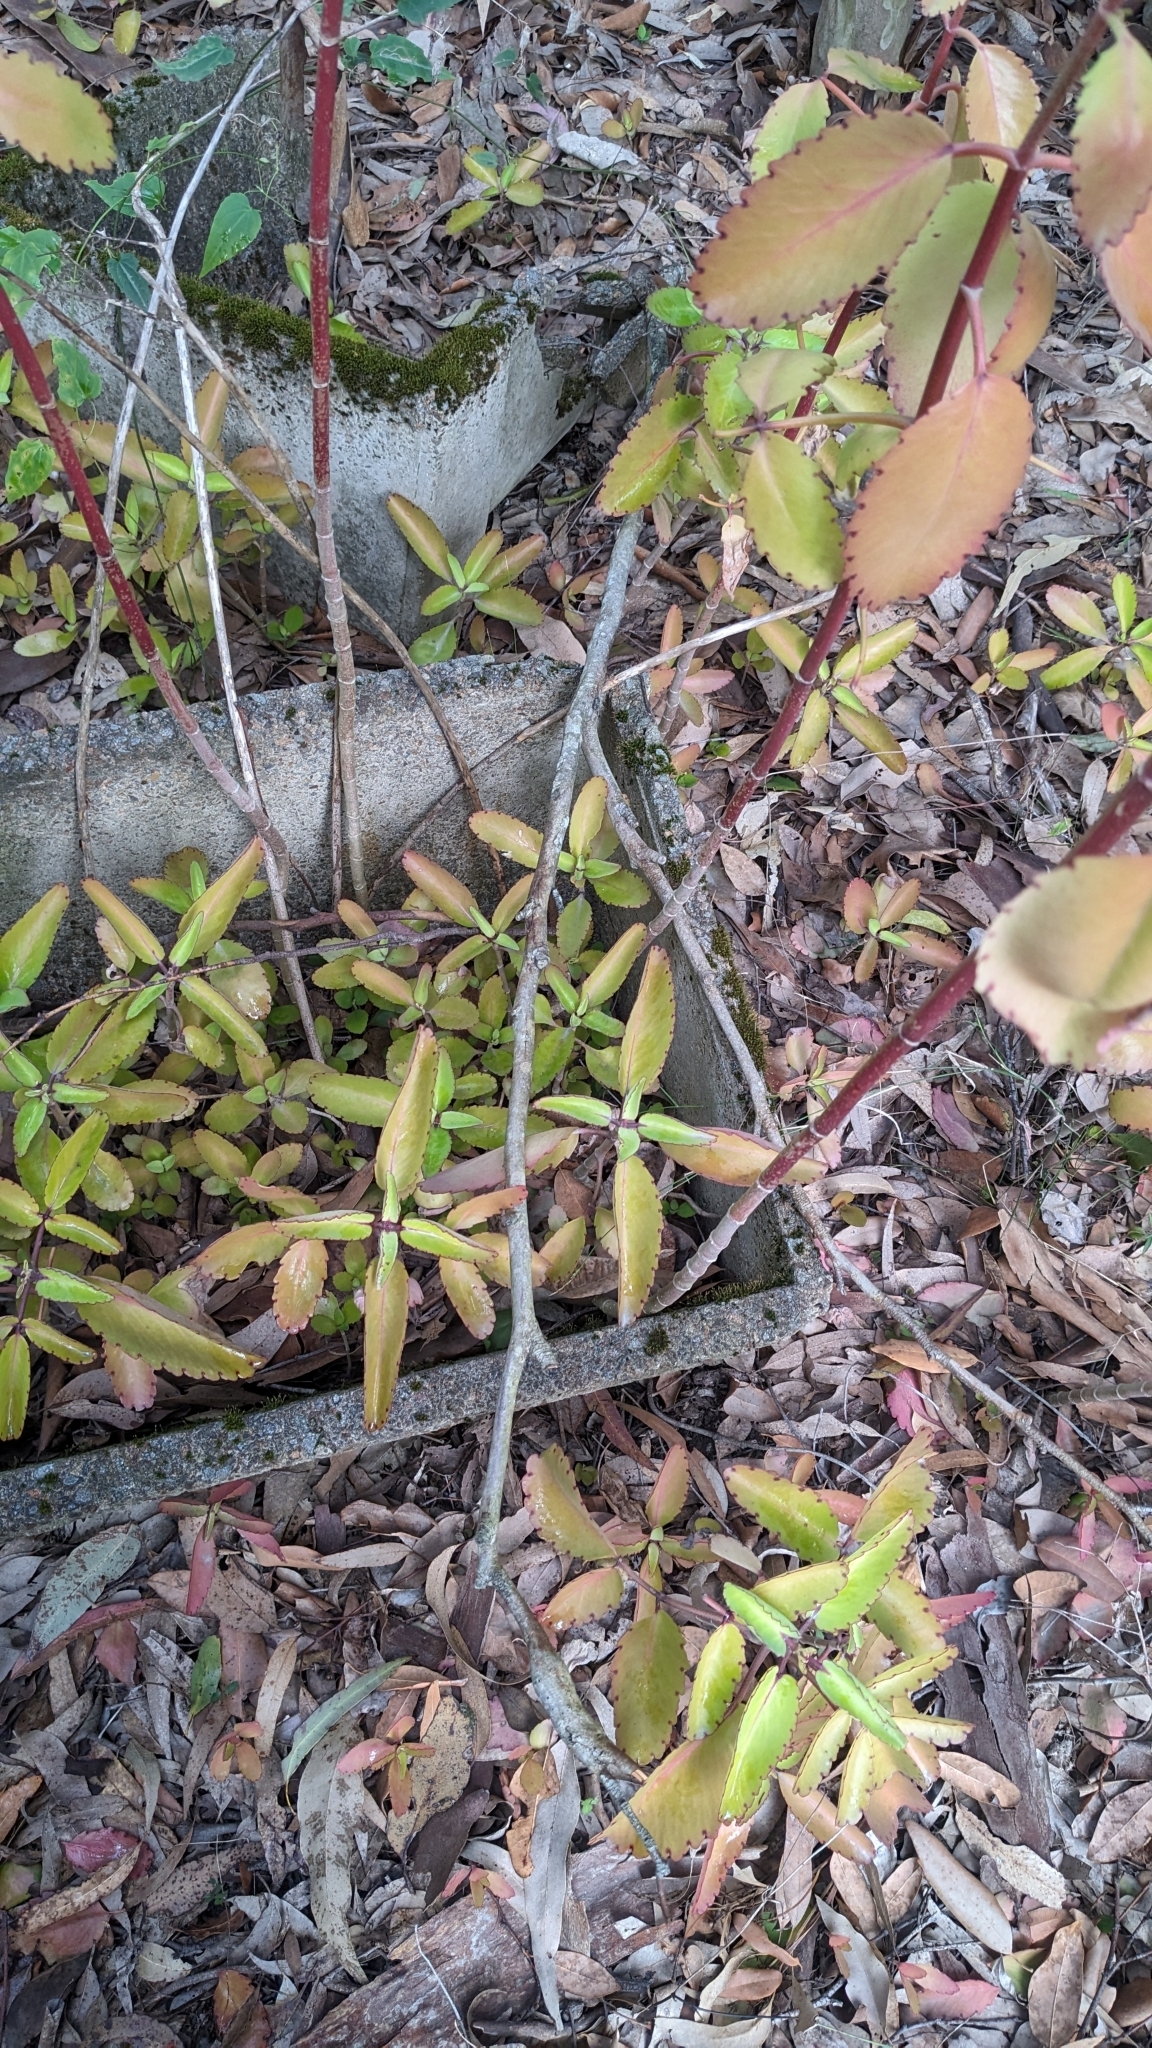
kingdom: Plantae
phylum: Tracheophyta
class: Magnoliopsida
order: Saxifragales
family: Crassulaceae
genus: Kalanchoe
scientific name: Kalanchoe pinnata
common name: Cathedral bells
